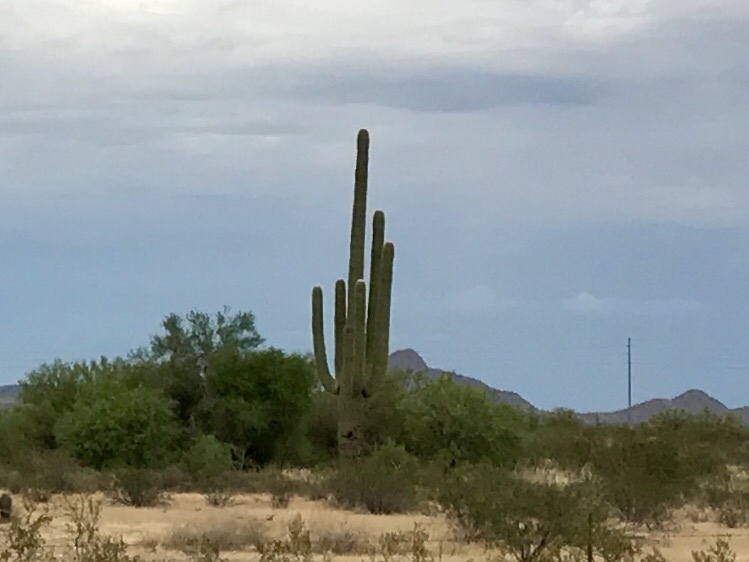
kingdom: Plantae
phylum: Tracheophyta
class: Magnoliopsida
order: Caryophyllales
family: Cactaceae
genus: Carnegiea
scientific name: Carnegiea gigantea
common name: Saguaro
